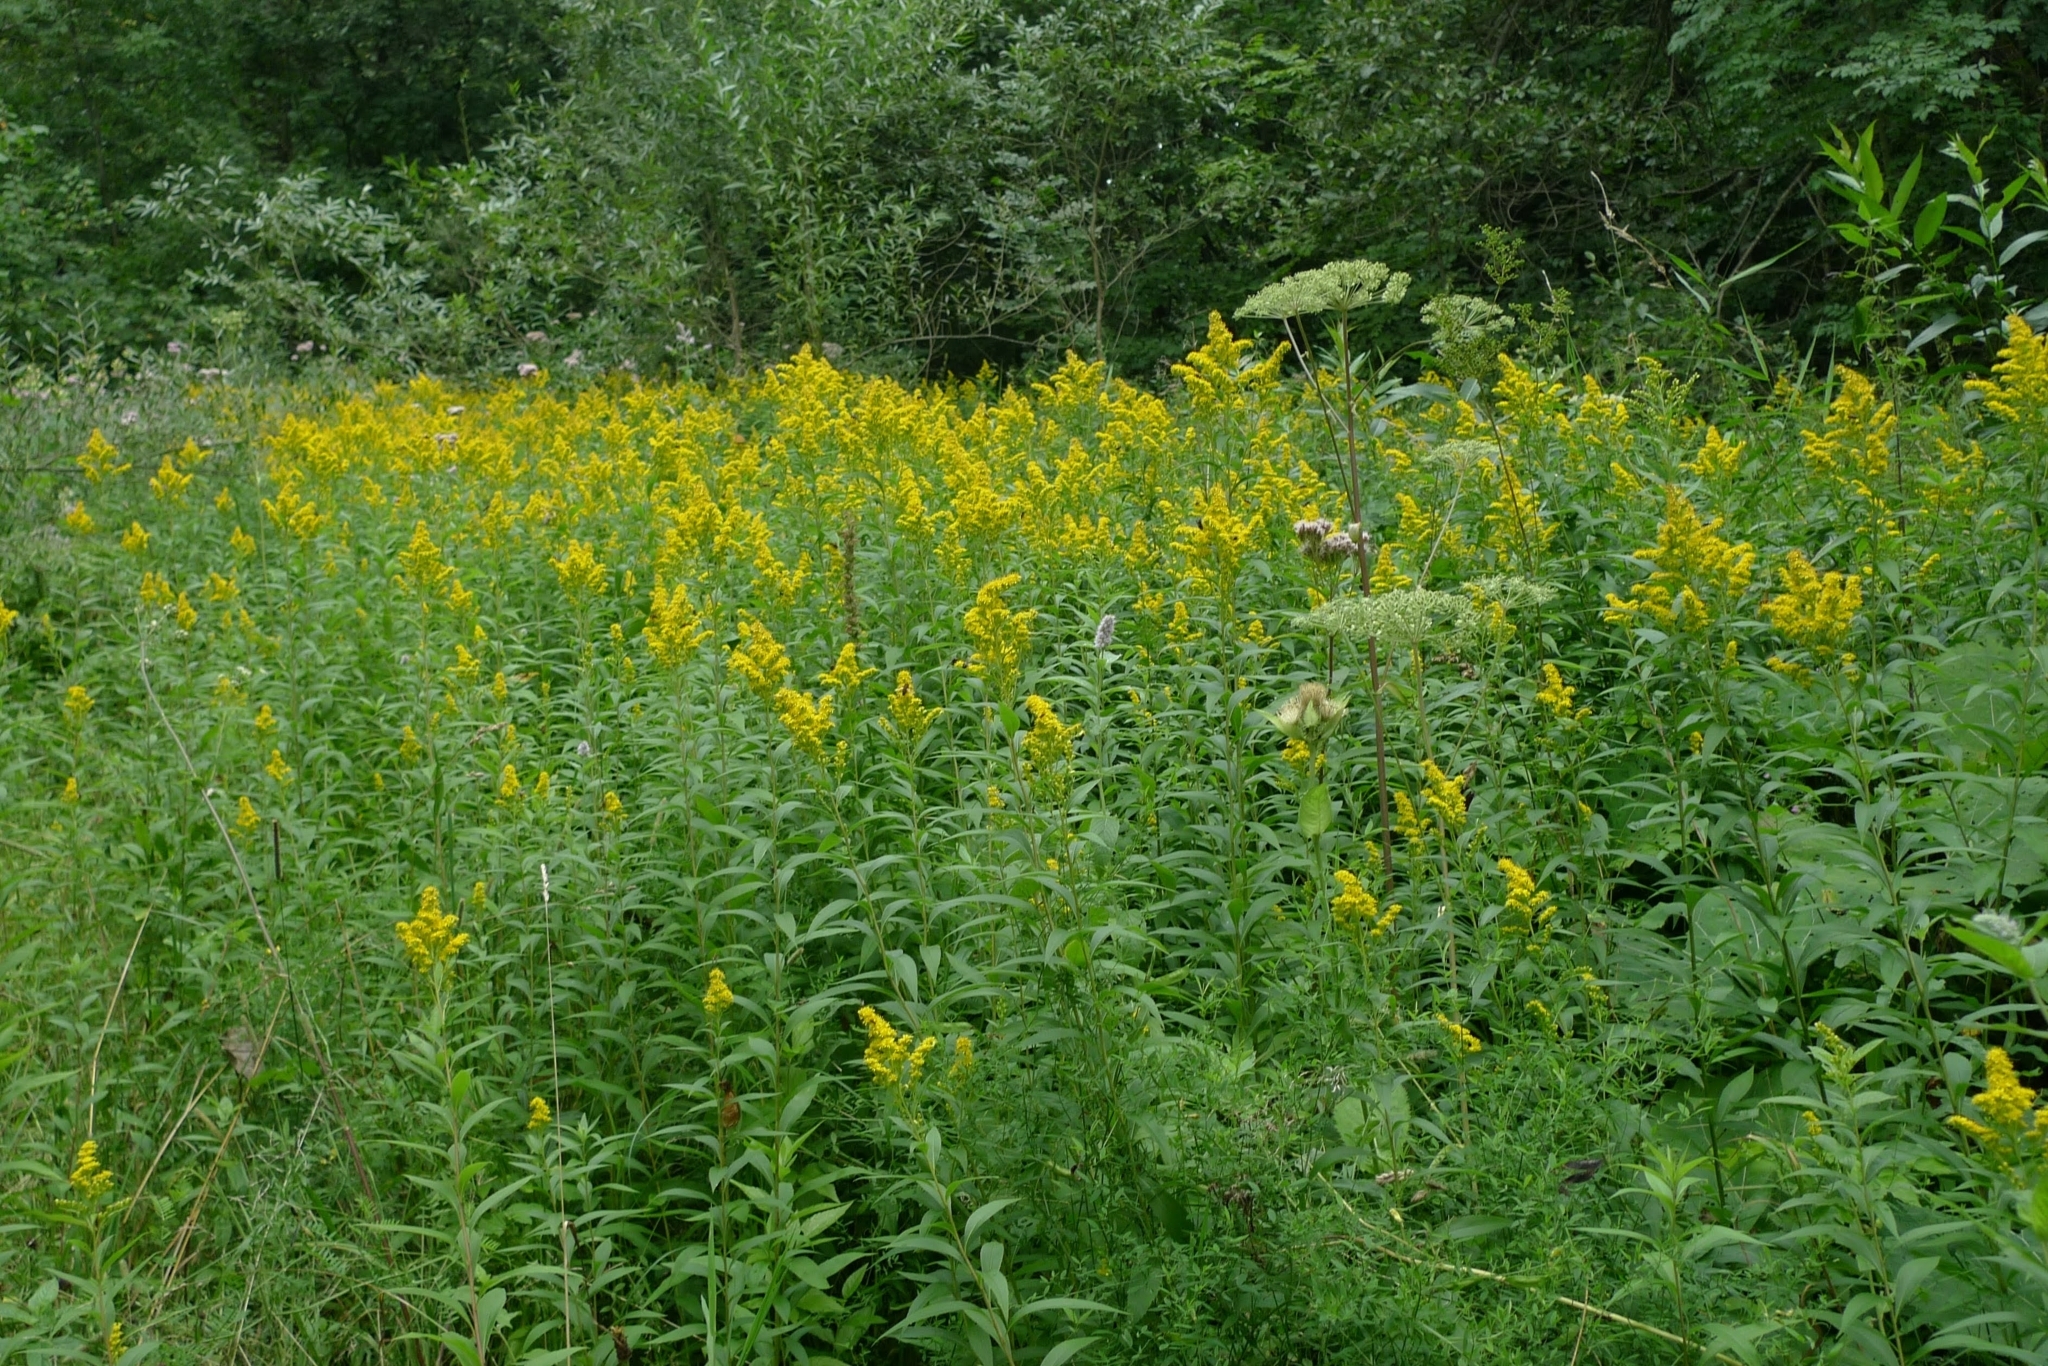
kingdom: Plantae
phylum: Tracheophyta
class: Magnoliopsida
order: Asterales
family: Asteraceae
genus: Solidago
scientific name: Solidago gigantea
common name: Giant goldenrod
